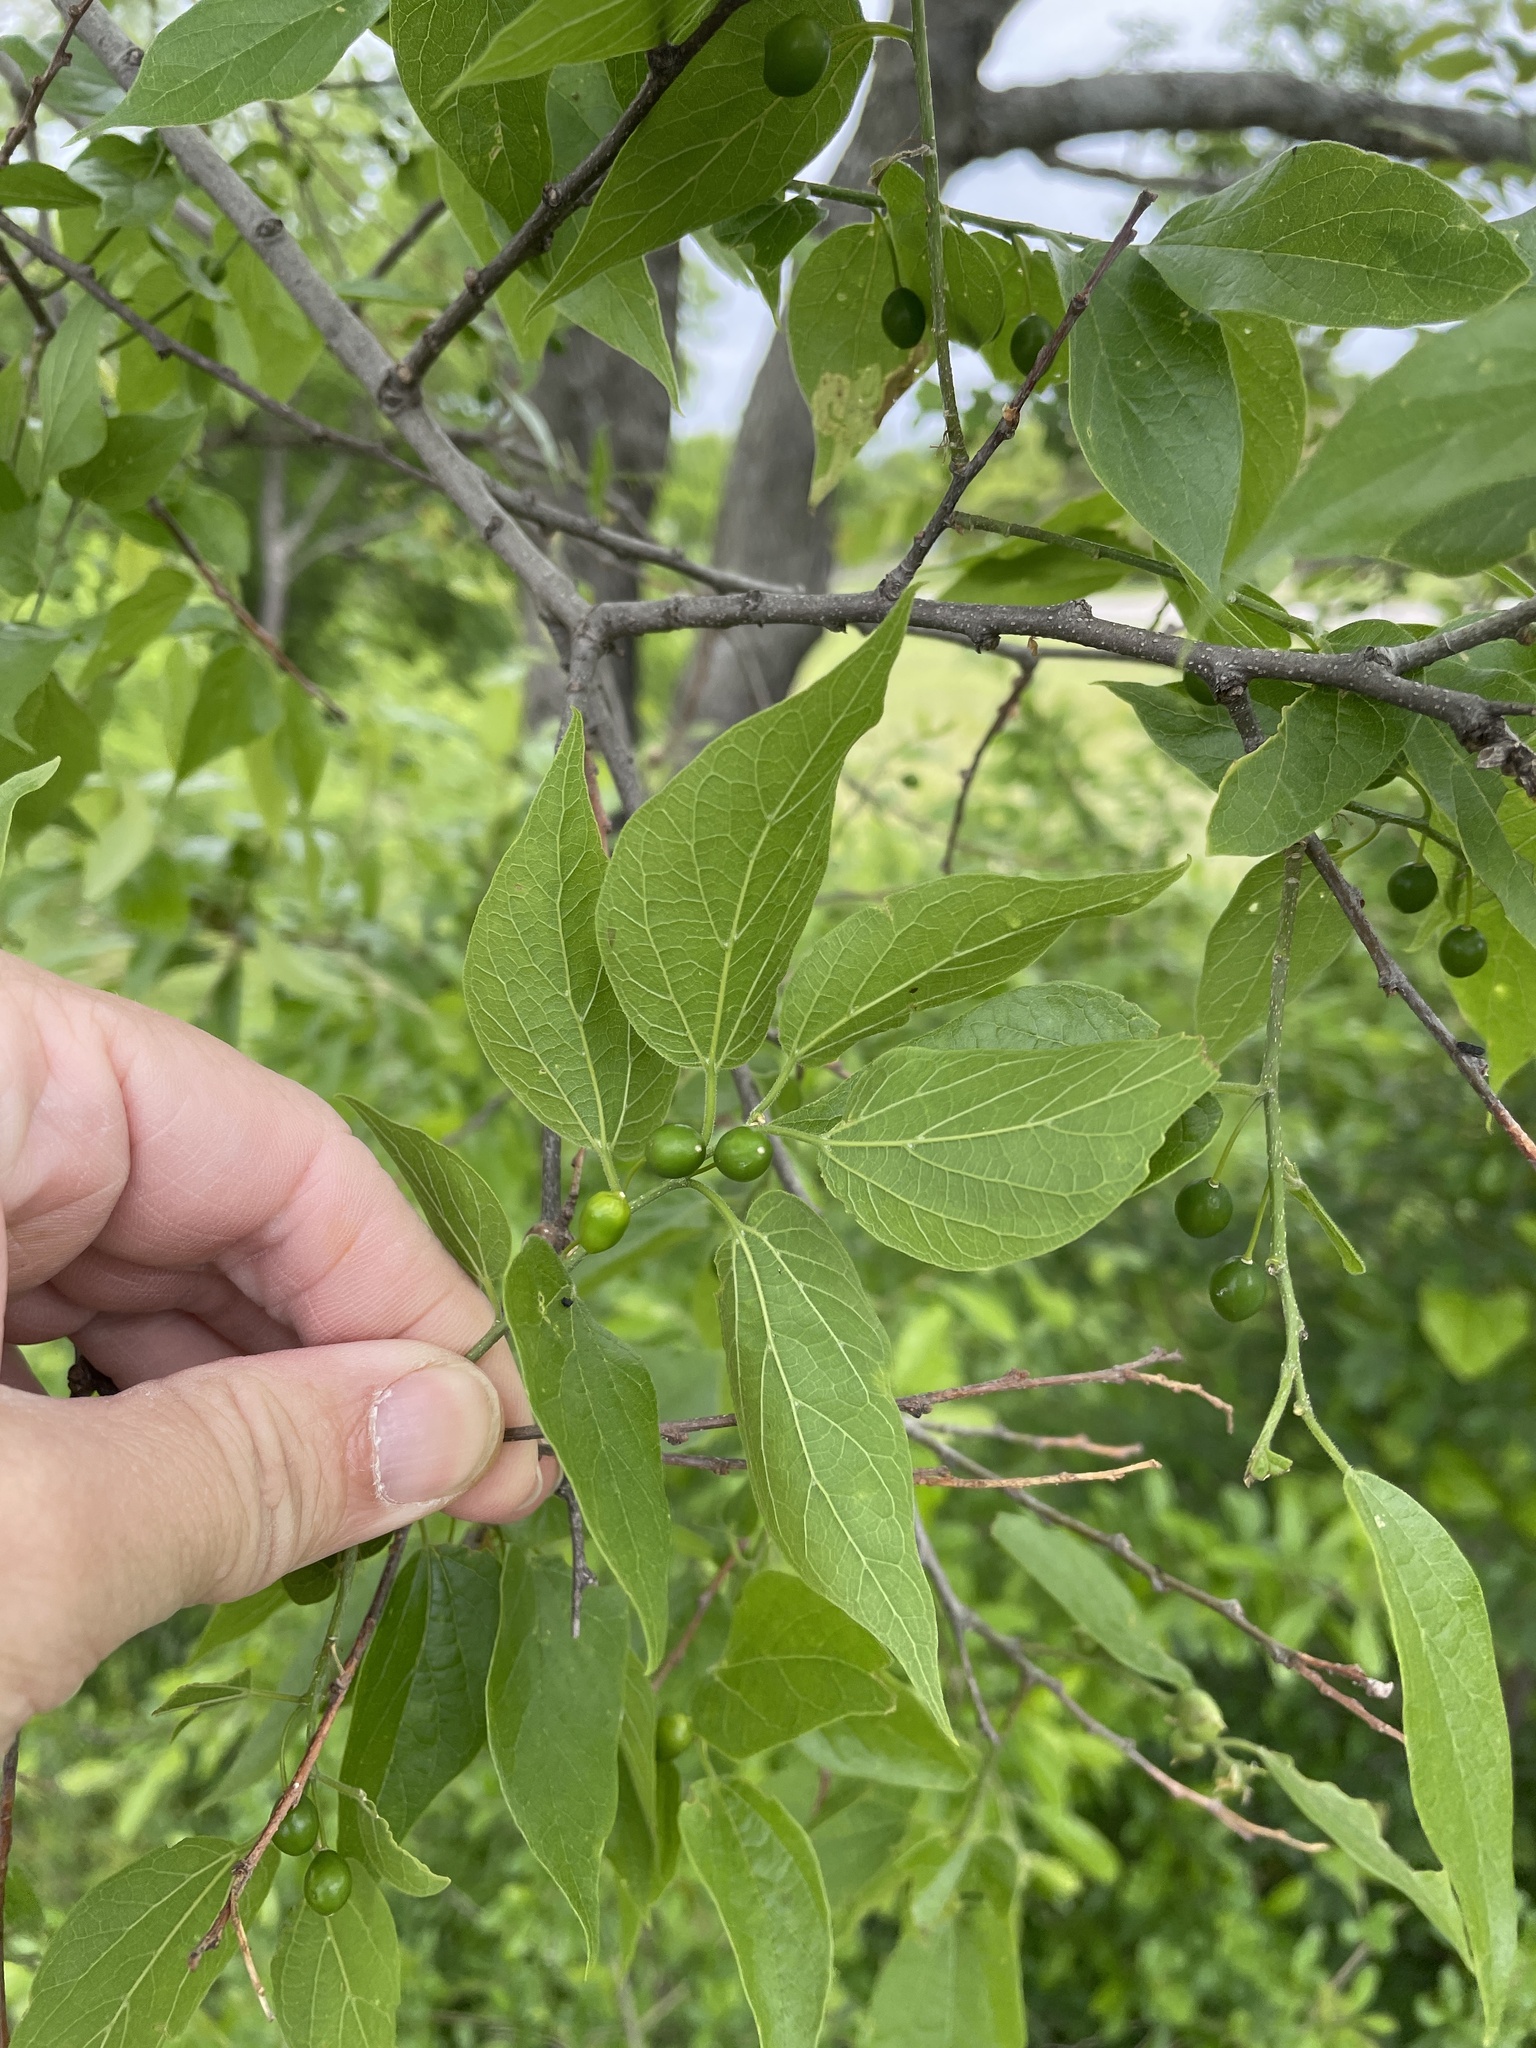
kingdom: Plantae
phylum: Tracheophyta
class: Magnoliopsida
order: Rosales
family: Cannabaceae
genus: Celtis
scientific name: Celtis laevigata
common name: Sugarberry
